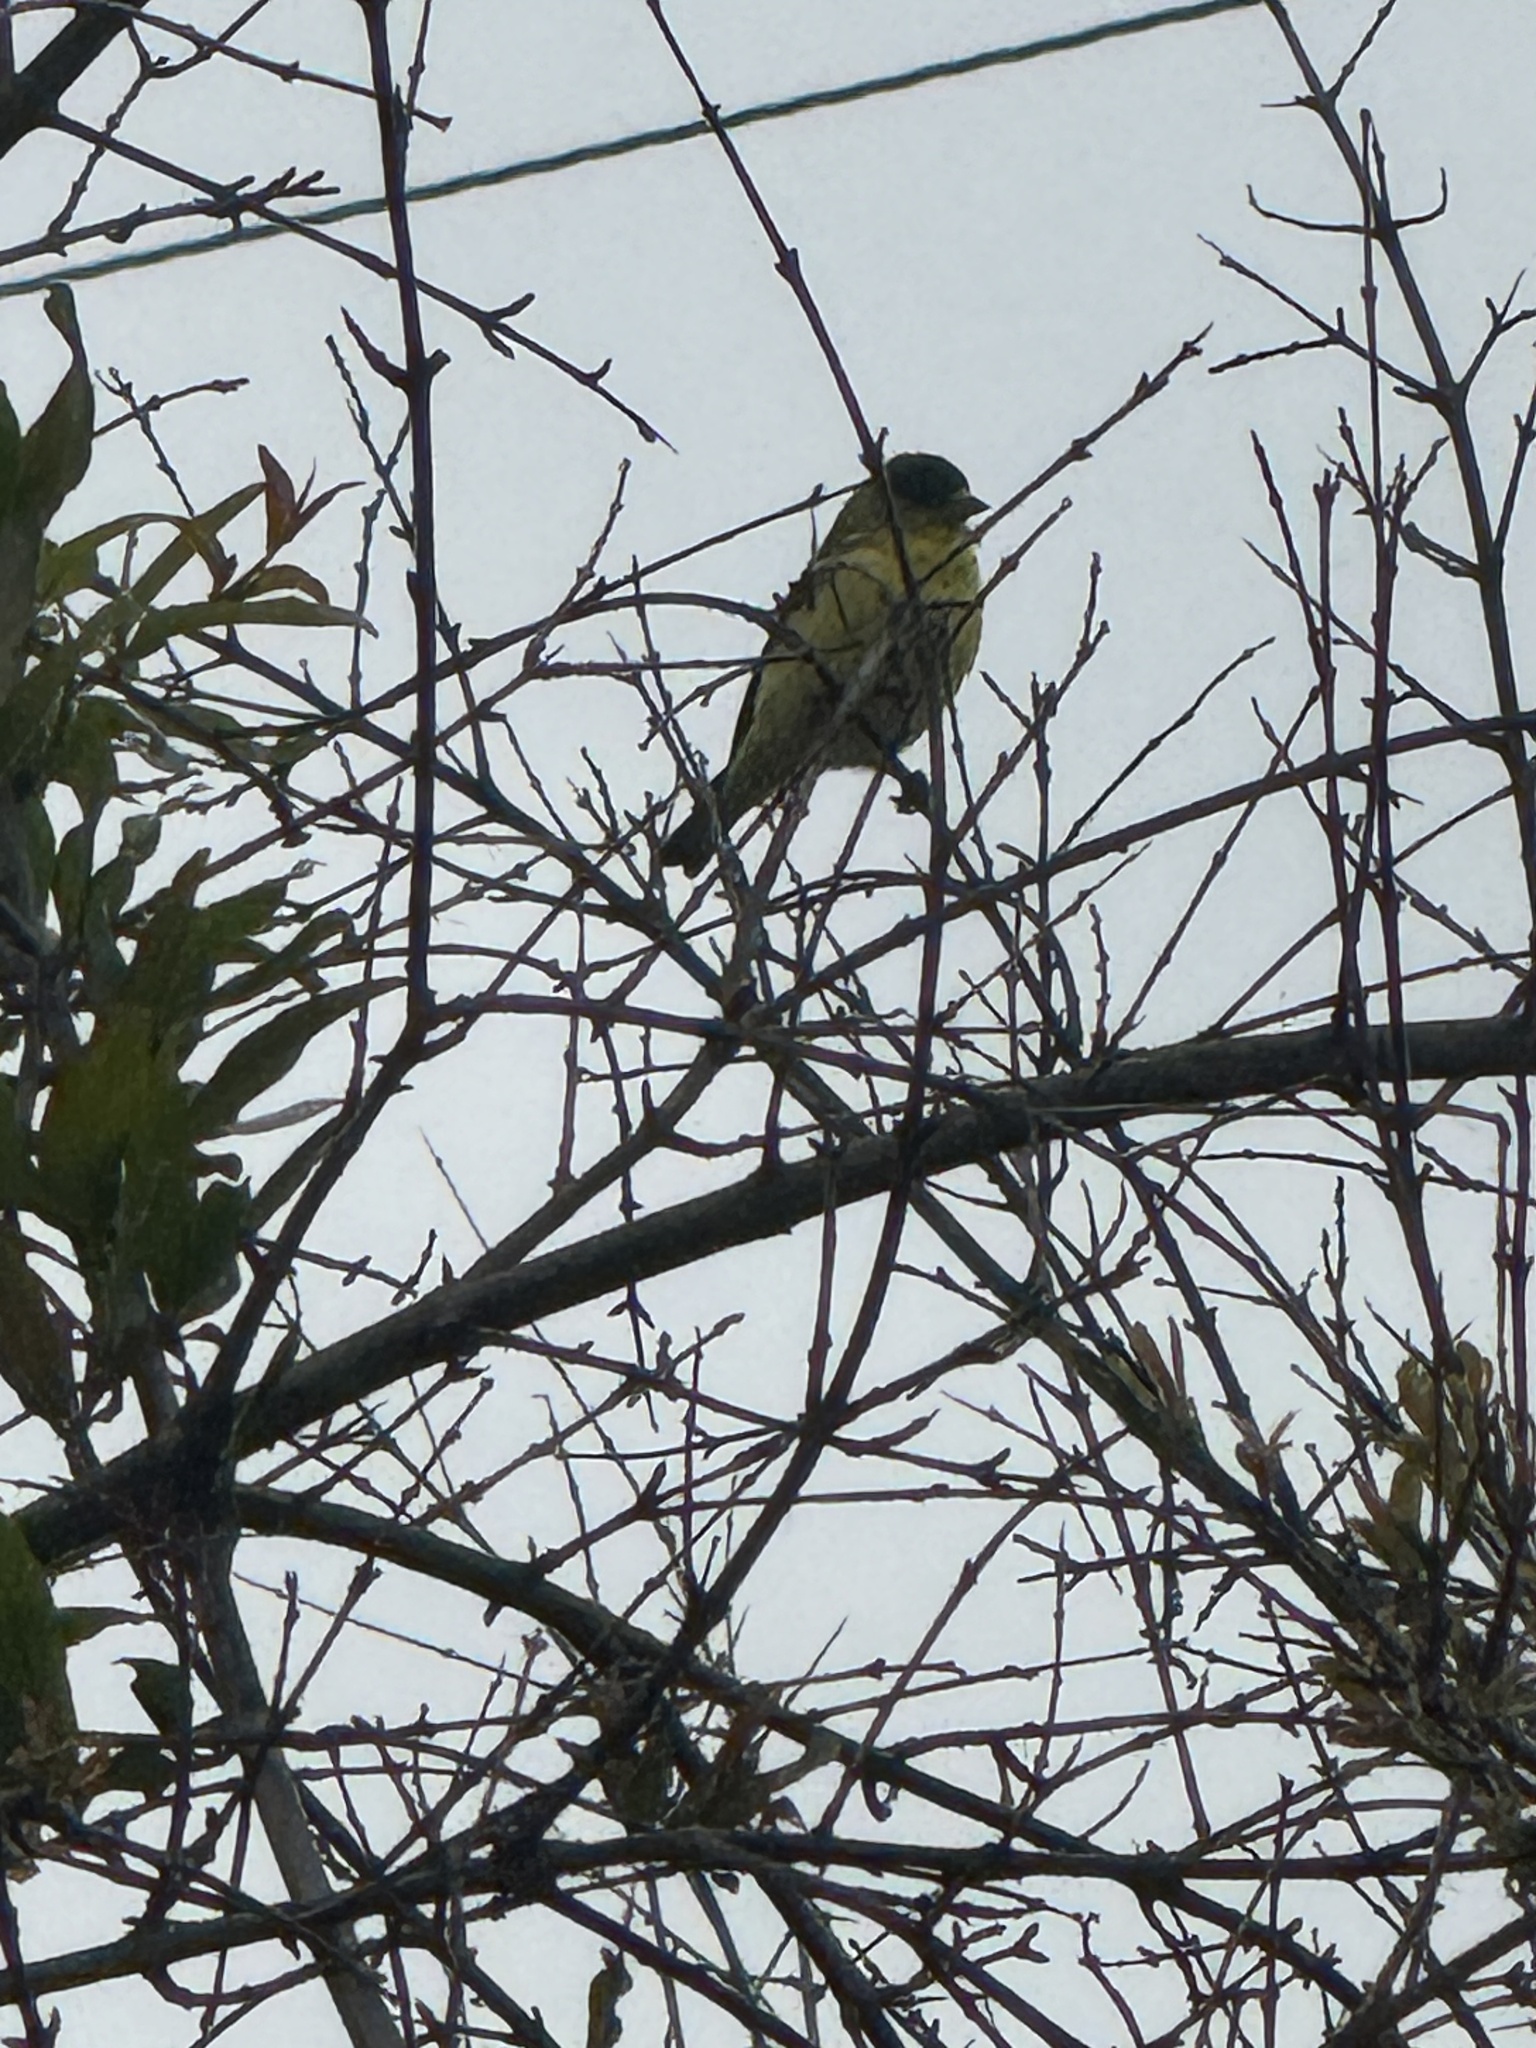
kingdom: Animalia
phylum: Chordata
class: Aves
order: Passeriformes
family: Fringillidae
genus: Spinus
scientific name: Spinus psaltria
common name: Lesser goldfinch
